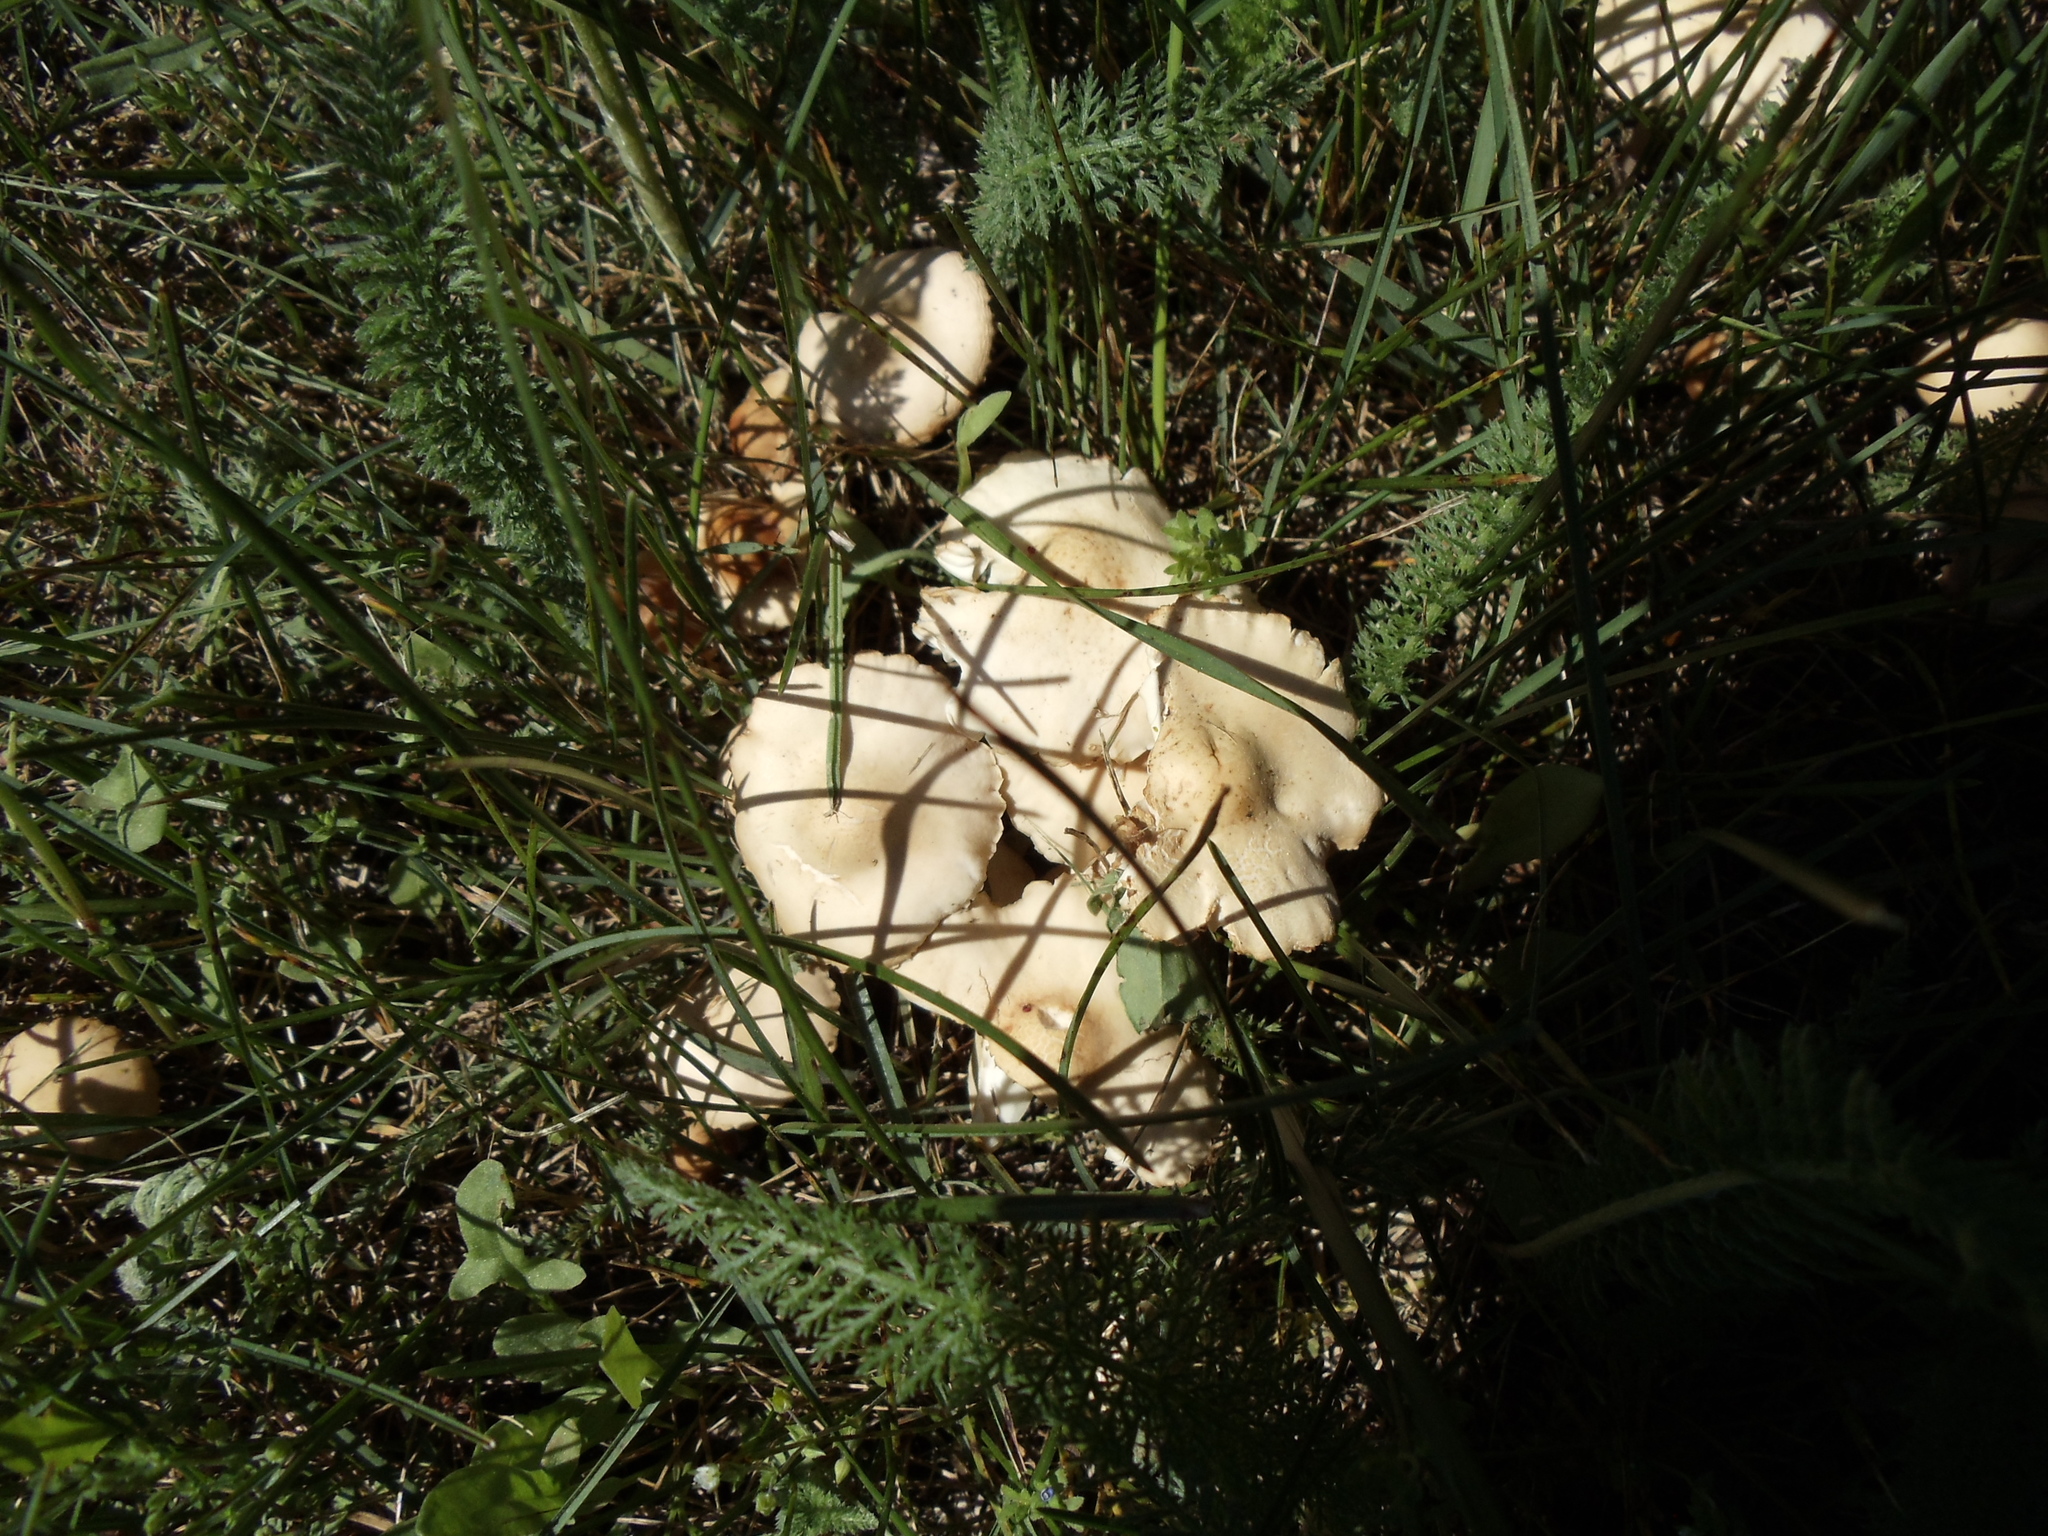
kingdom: Fungi
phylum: Basidiomycota
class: Agaricomycetes
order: Agaricales
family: Marasmiaceae
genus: Marasmius
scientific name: Marasmius oreades
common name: Fairy ring champignon
